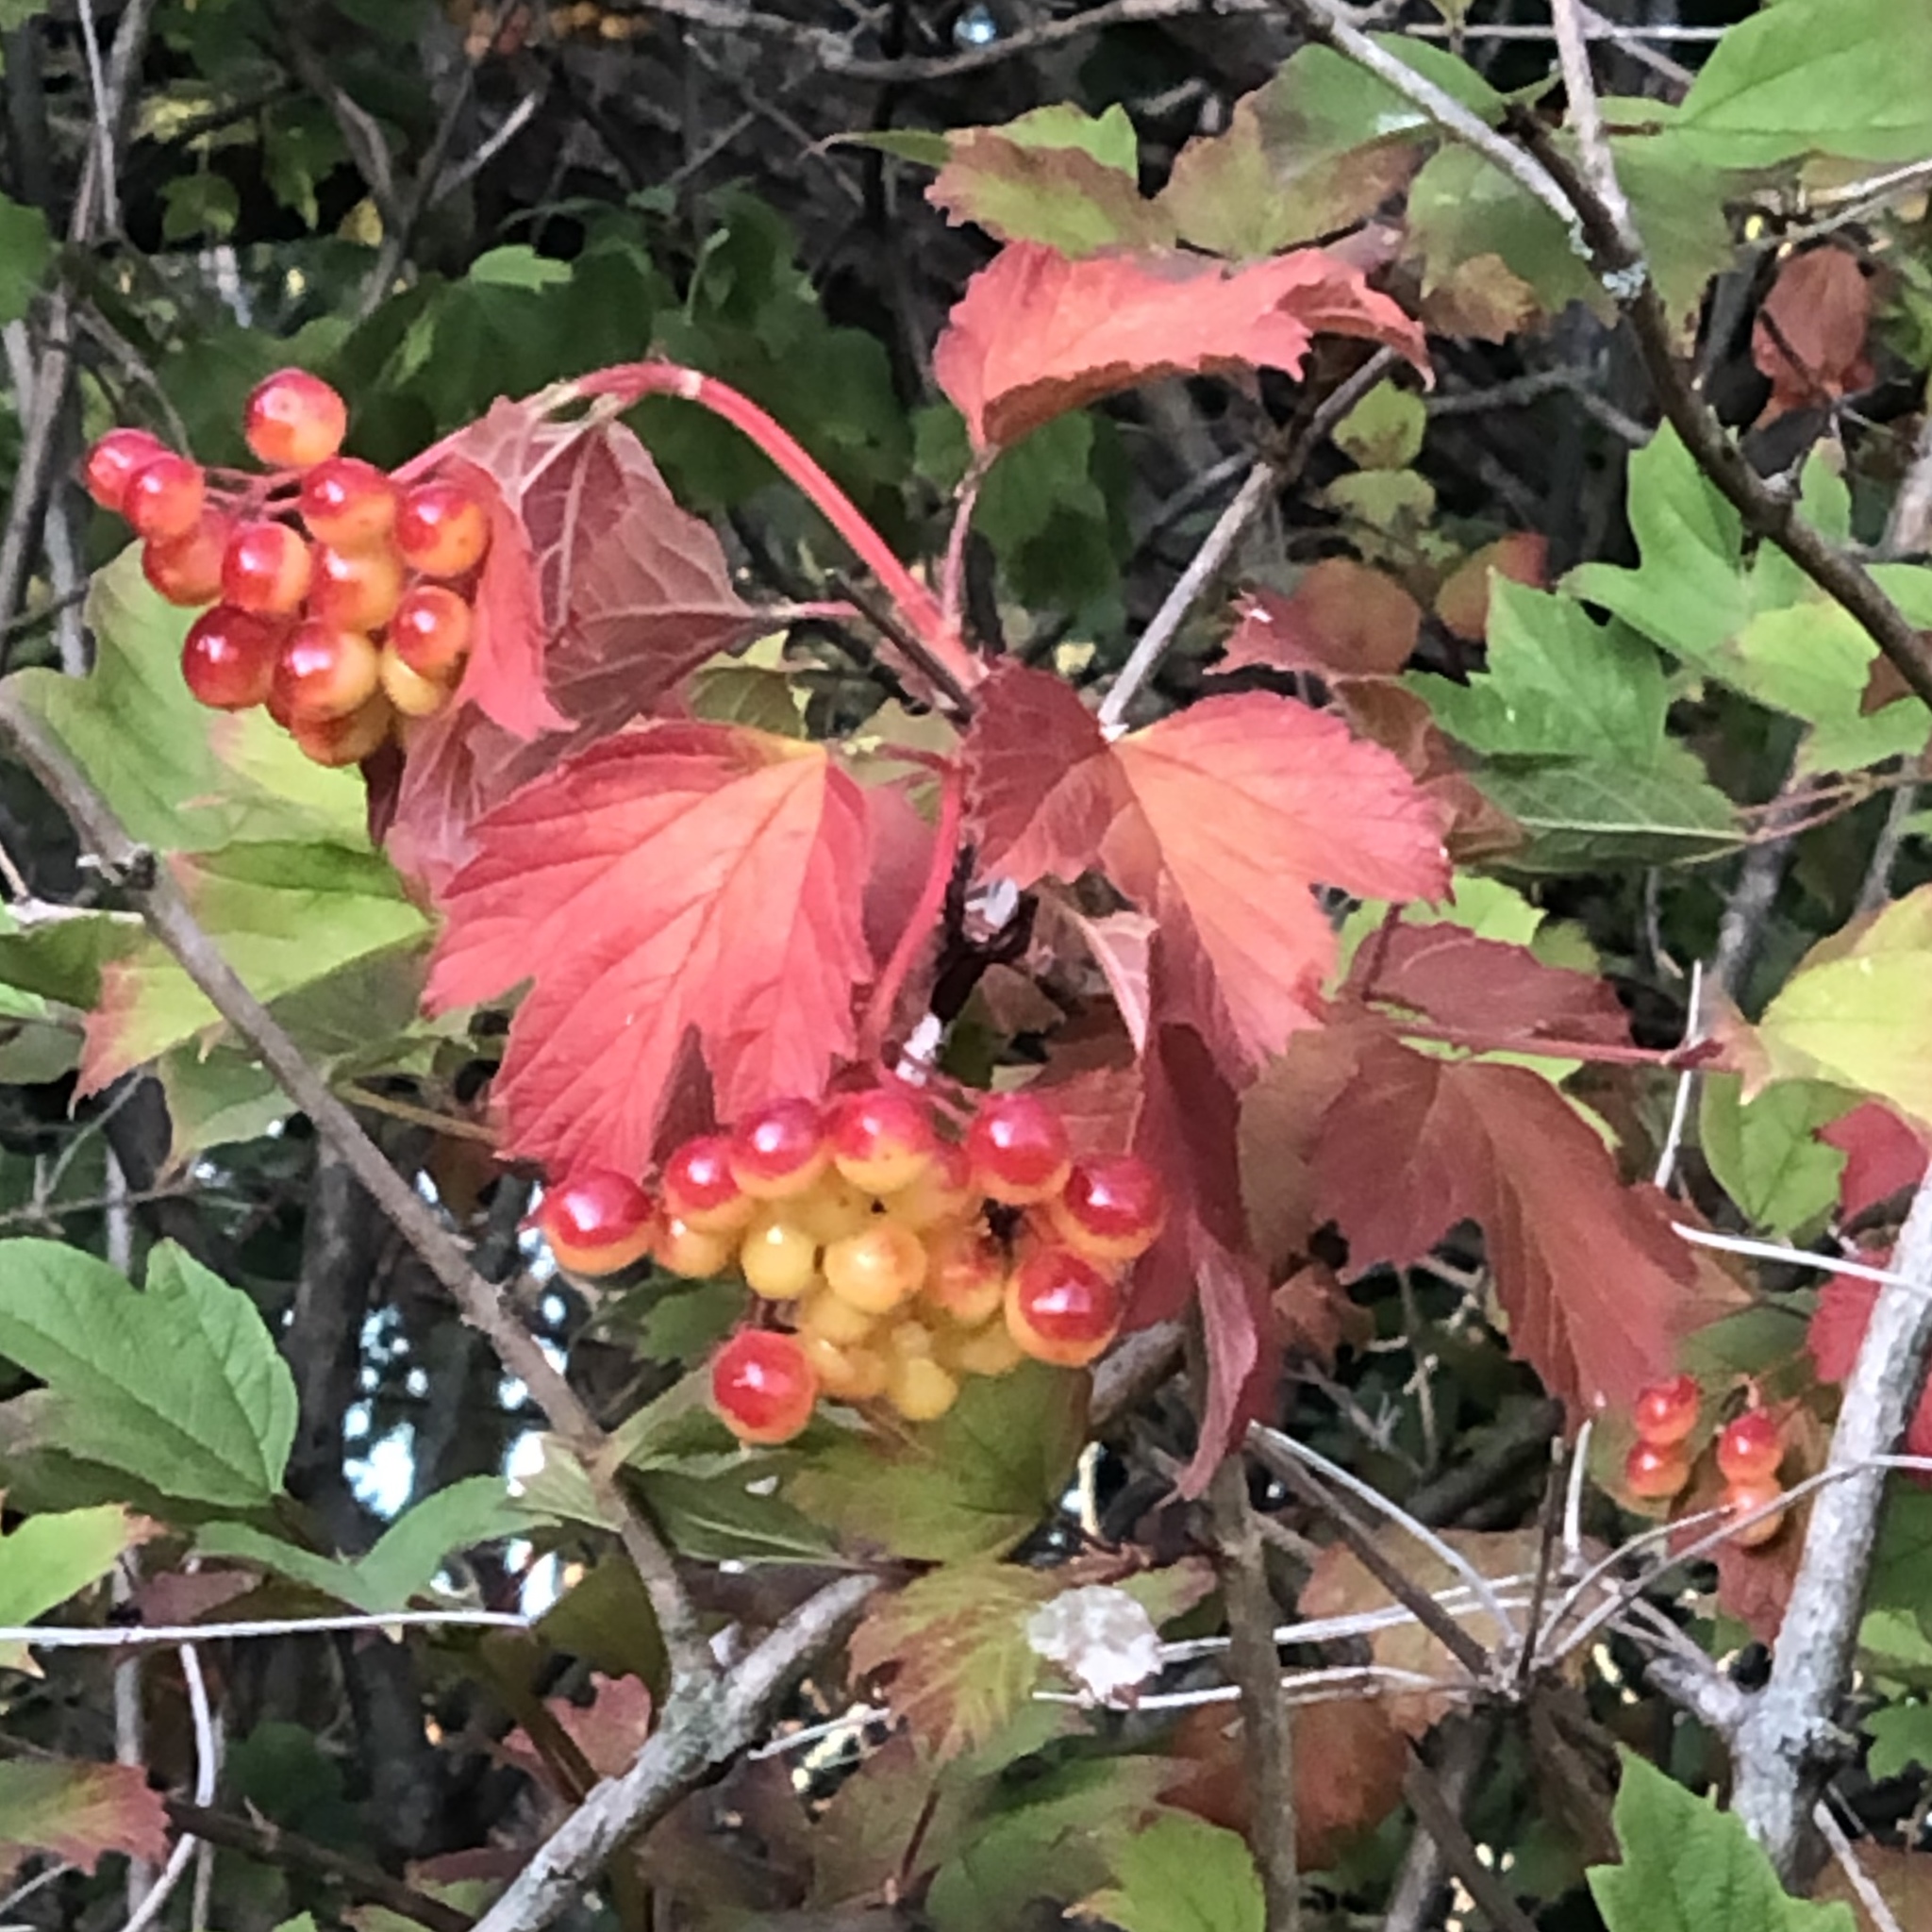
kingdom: Plantae
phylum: Tracheophyta
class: Magnoliopsida
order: Dipsacales
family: Viburnaceae
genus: Viburnum
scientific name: Viburnum opulus
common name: Guelder-rose
